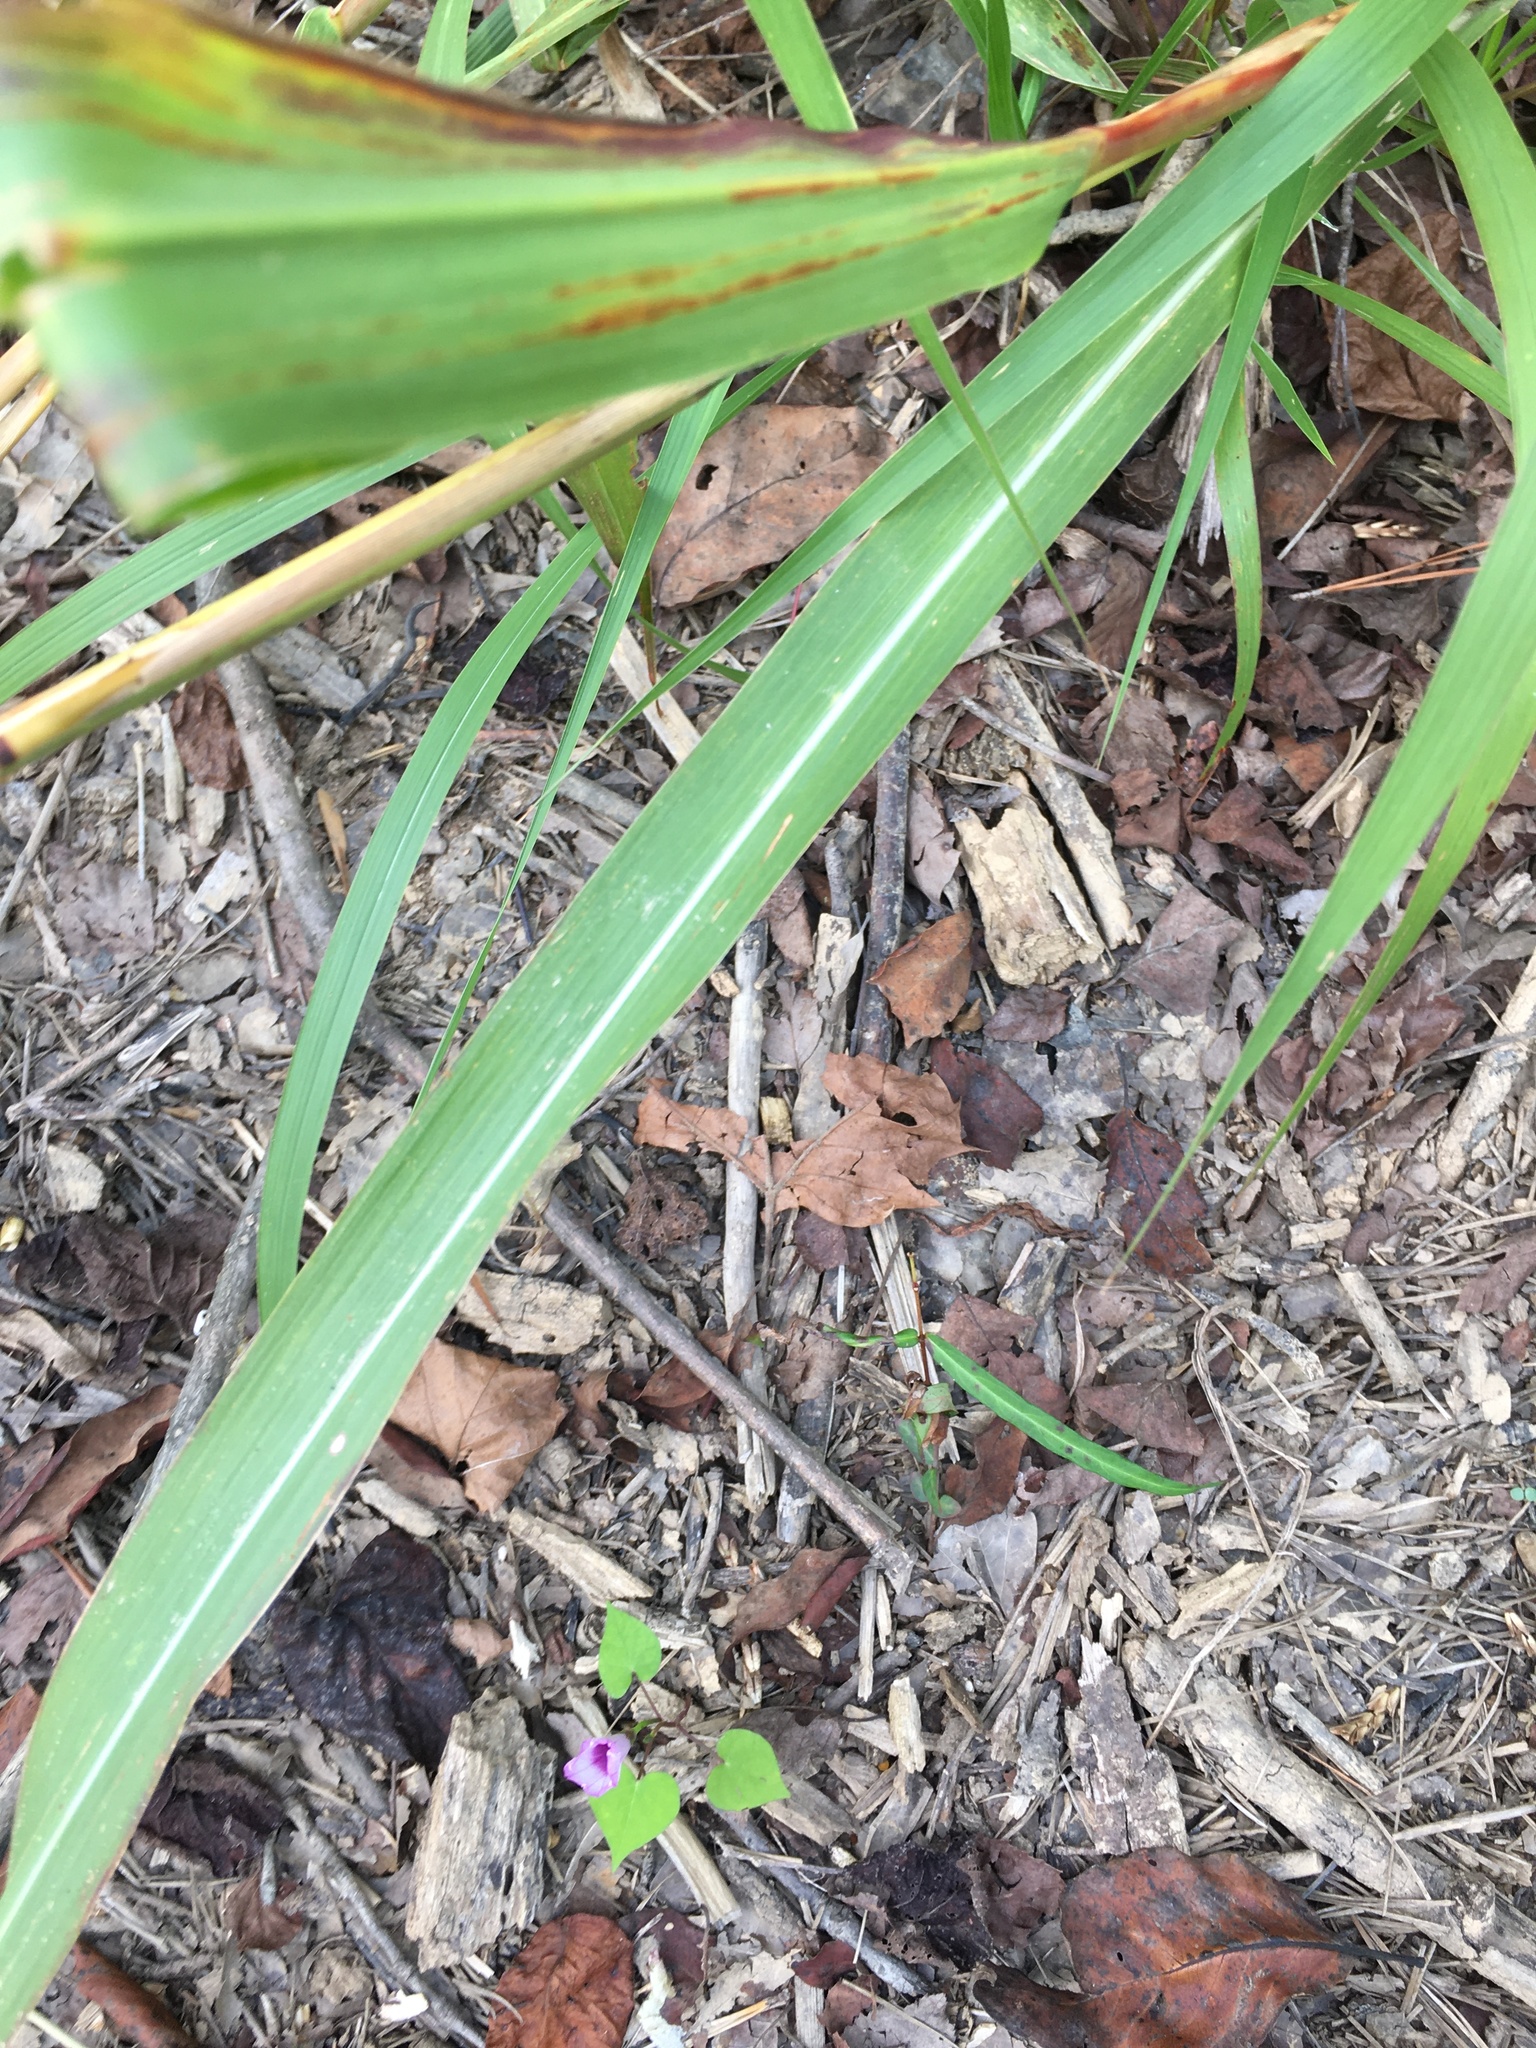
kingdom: Plantae
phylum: Tracheophyta
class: Liliopsida
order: Poales
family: Poaceae
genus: Tripsacum
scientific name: Tripsacum dactyloides
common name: Buffalo-grass
